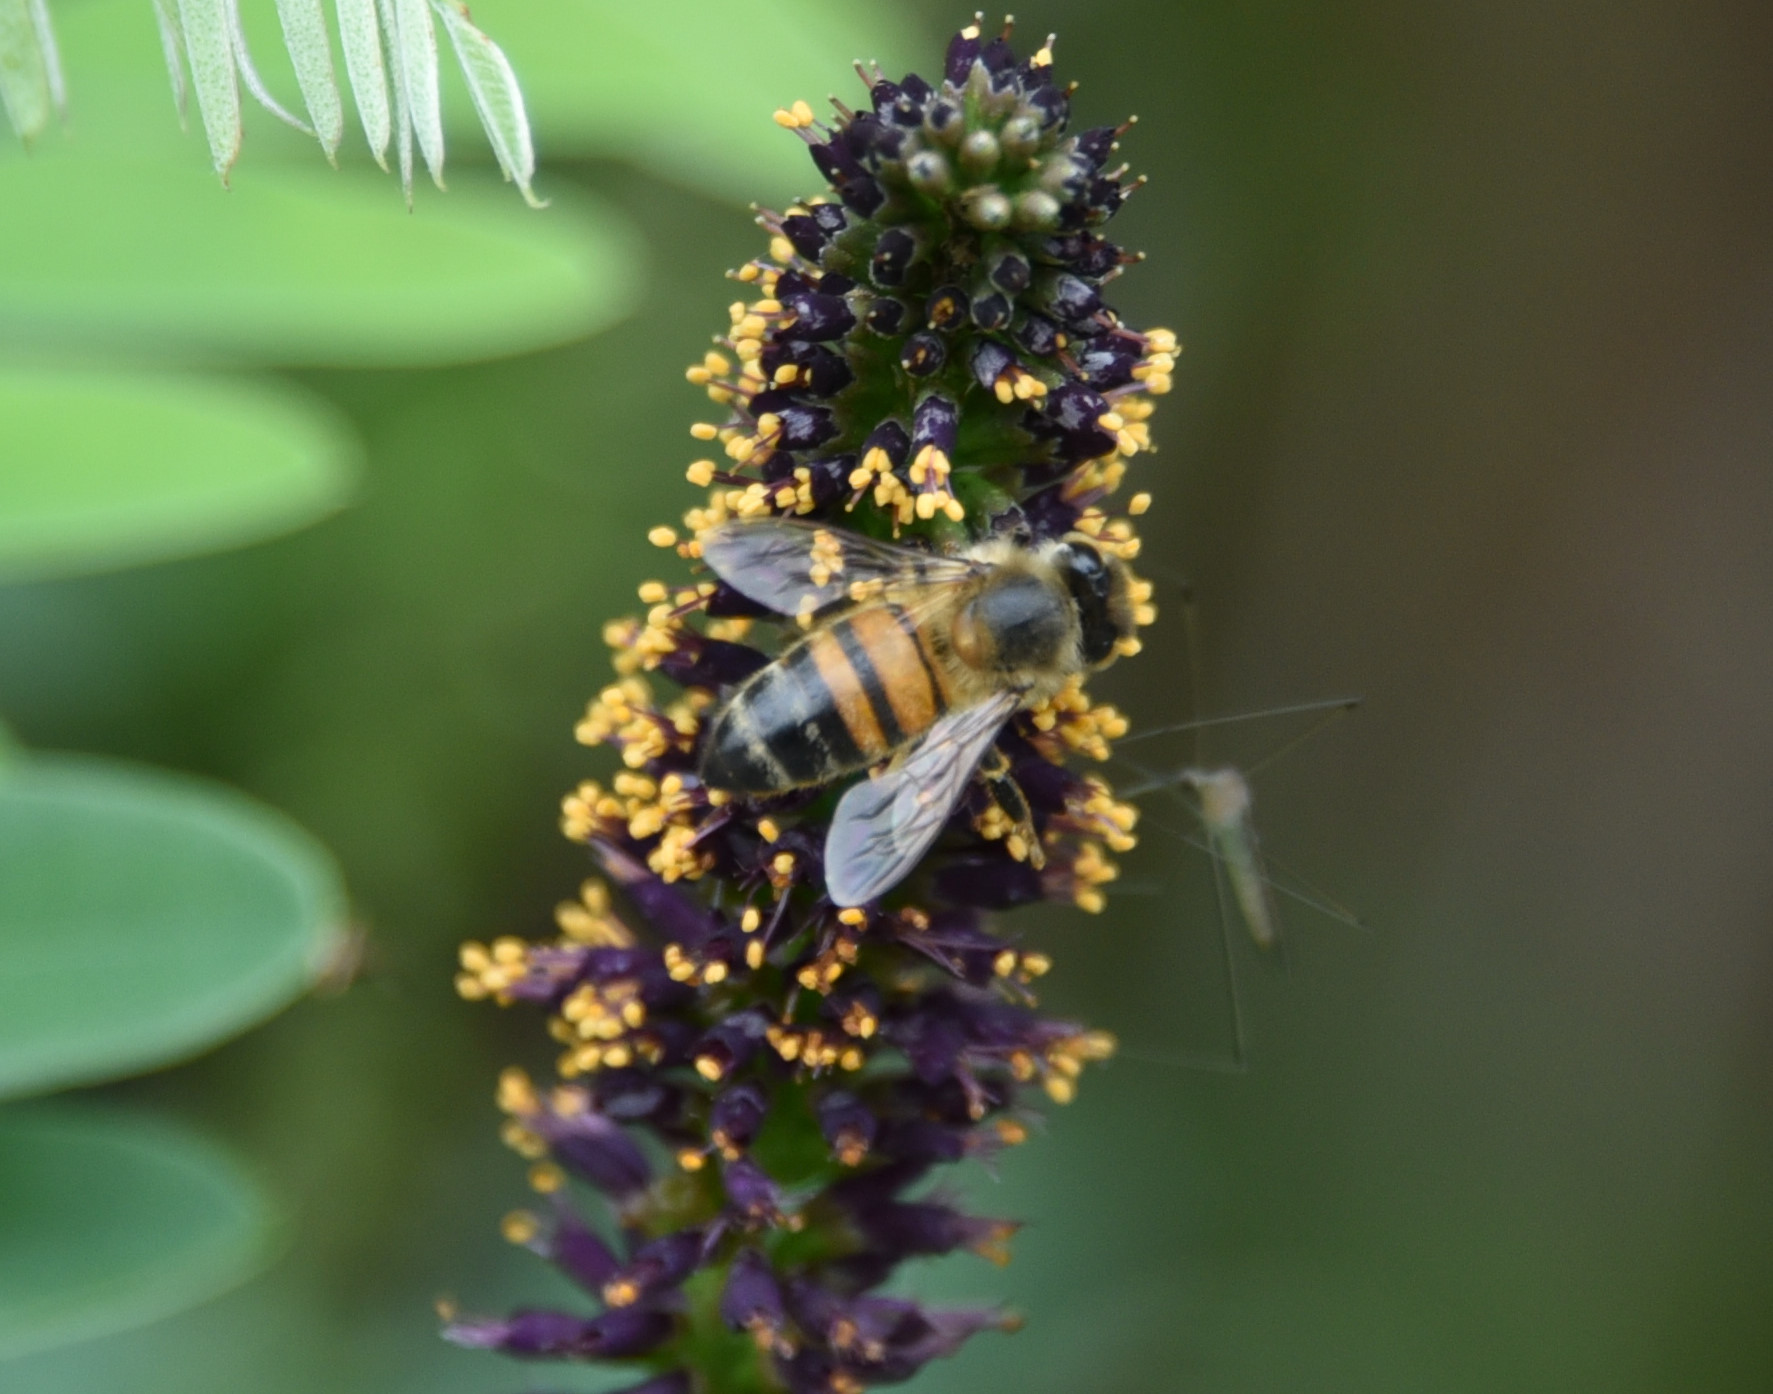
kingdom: Animalia
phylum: Arthropoda
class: Insecta
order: Hymenoptera
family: Apidae
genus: Apis
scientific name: Apis mellifera
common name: Honey bee
